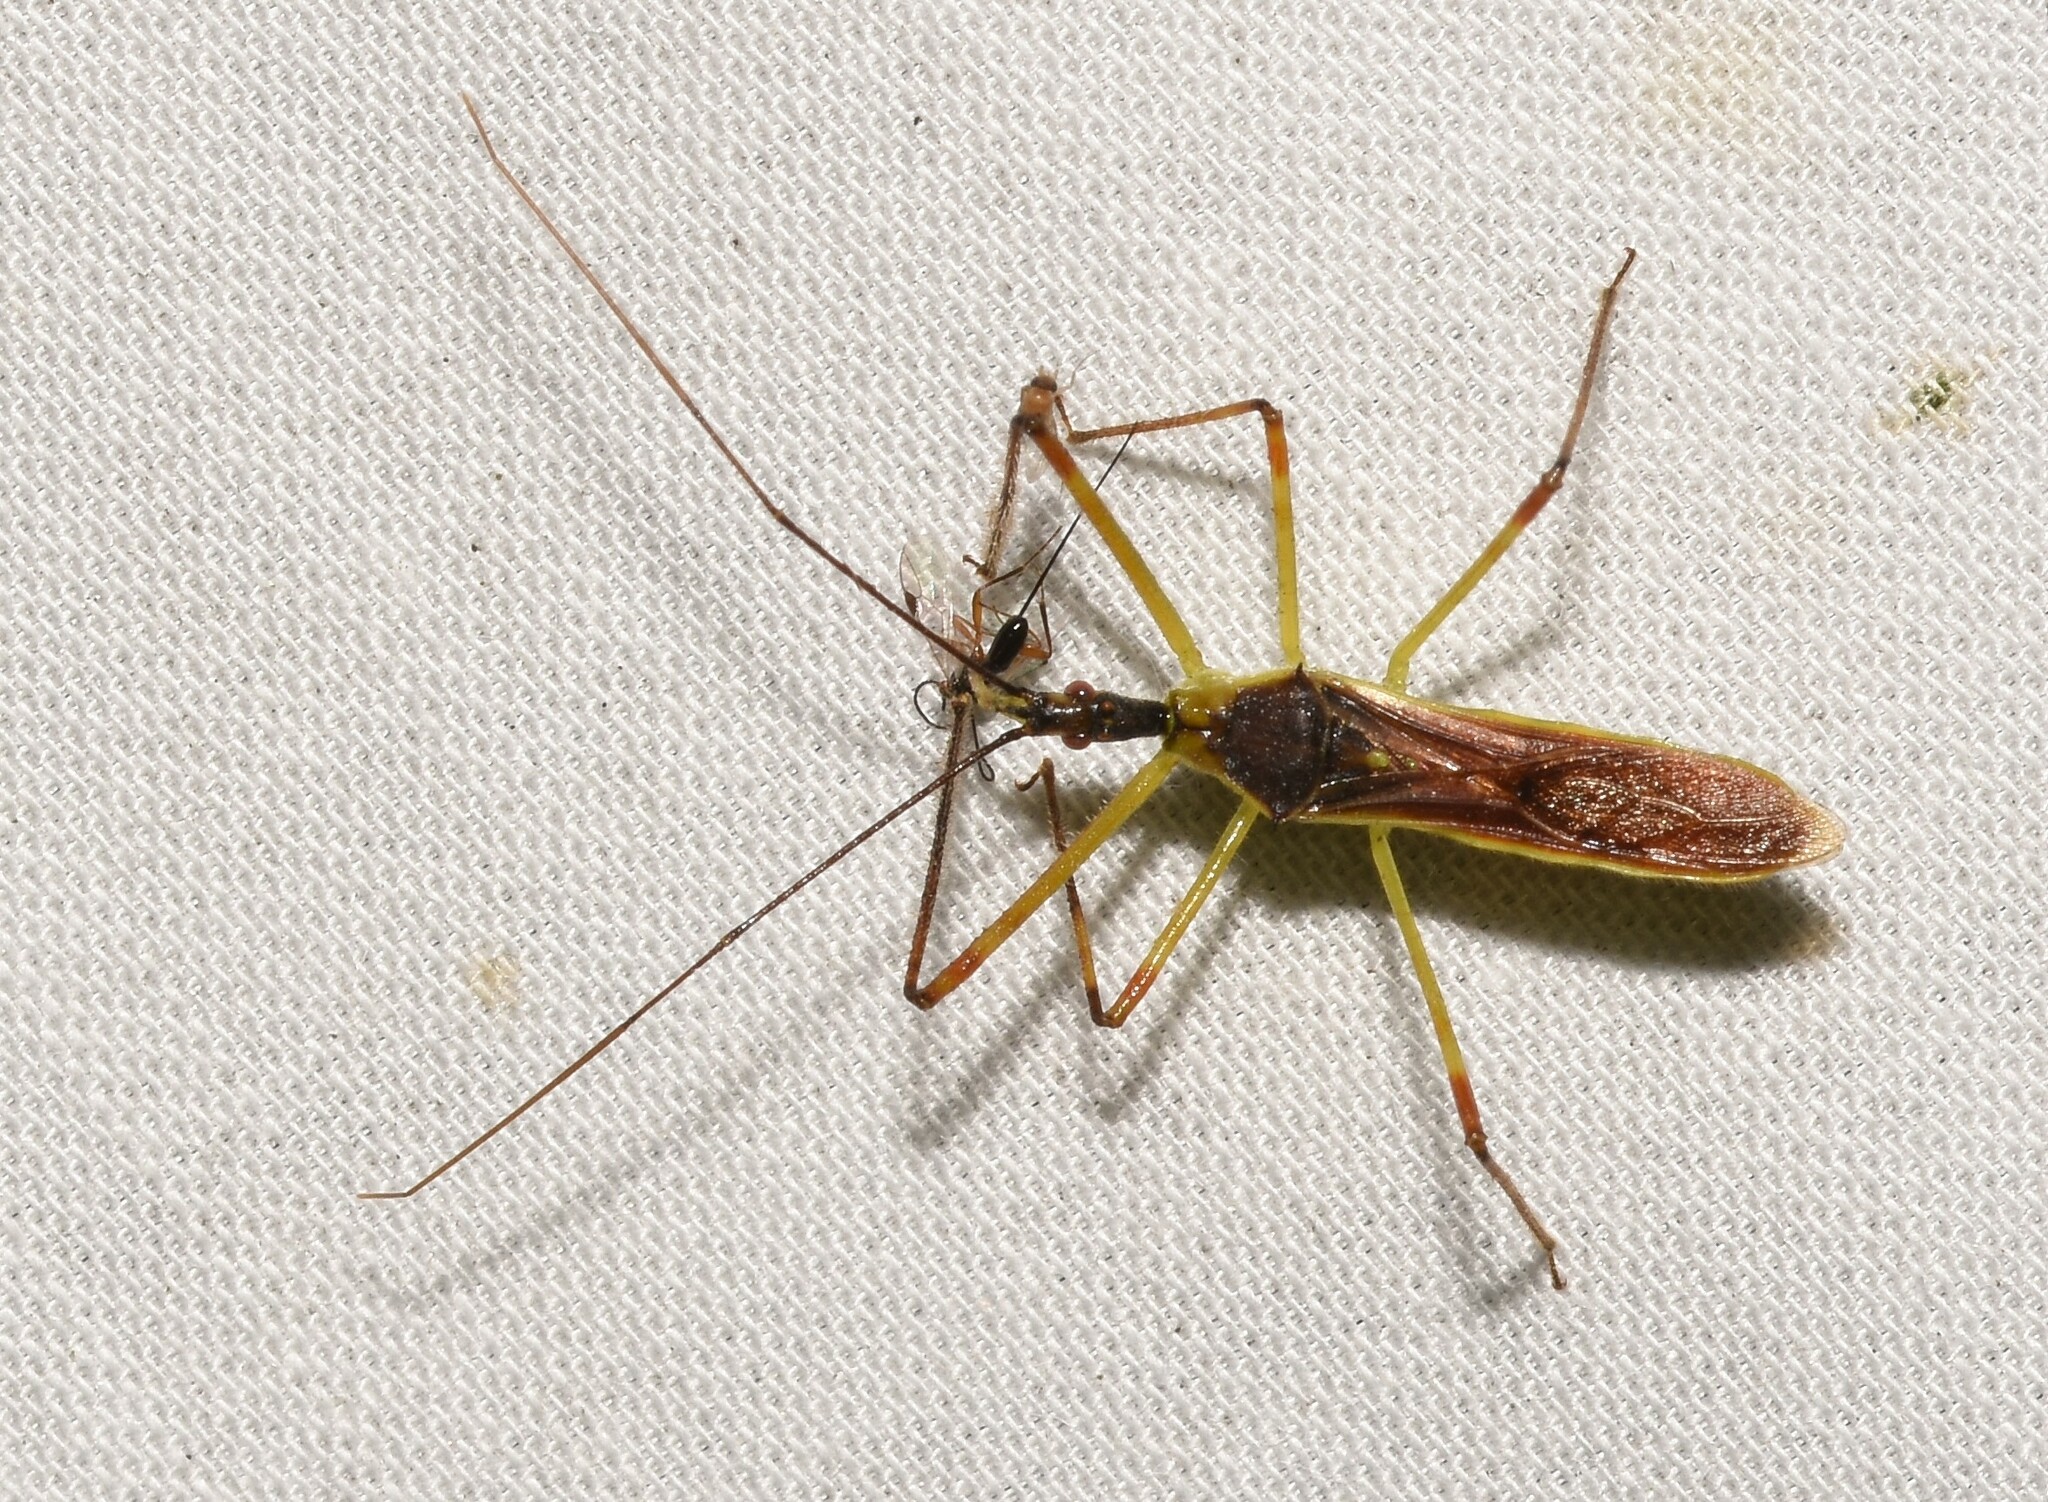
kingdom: Animalia
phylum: Arthropoda
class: Insecta
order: Hemiptera
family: Reduviidae
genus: Zelus
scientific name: Zelus luridus
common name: Pale green assassin bug
